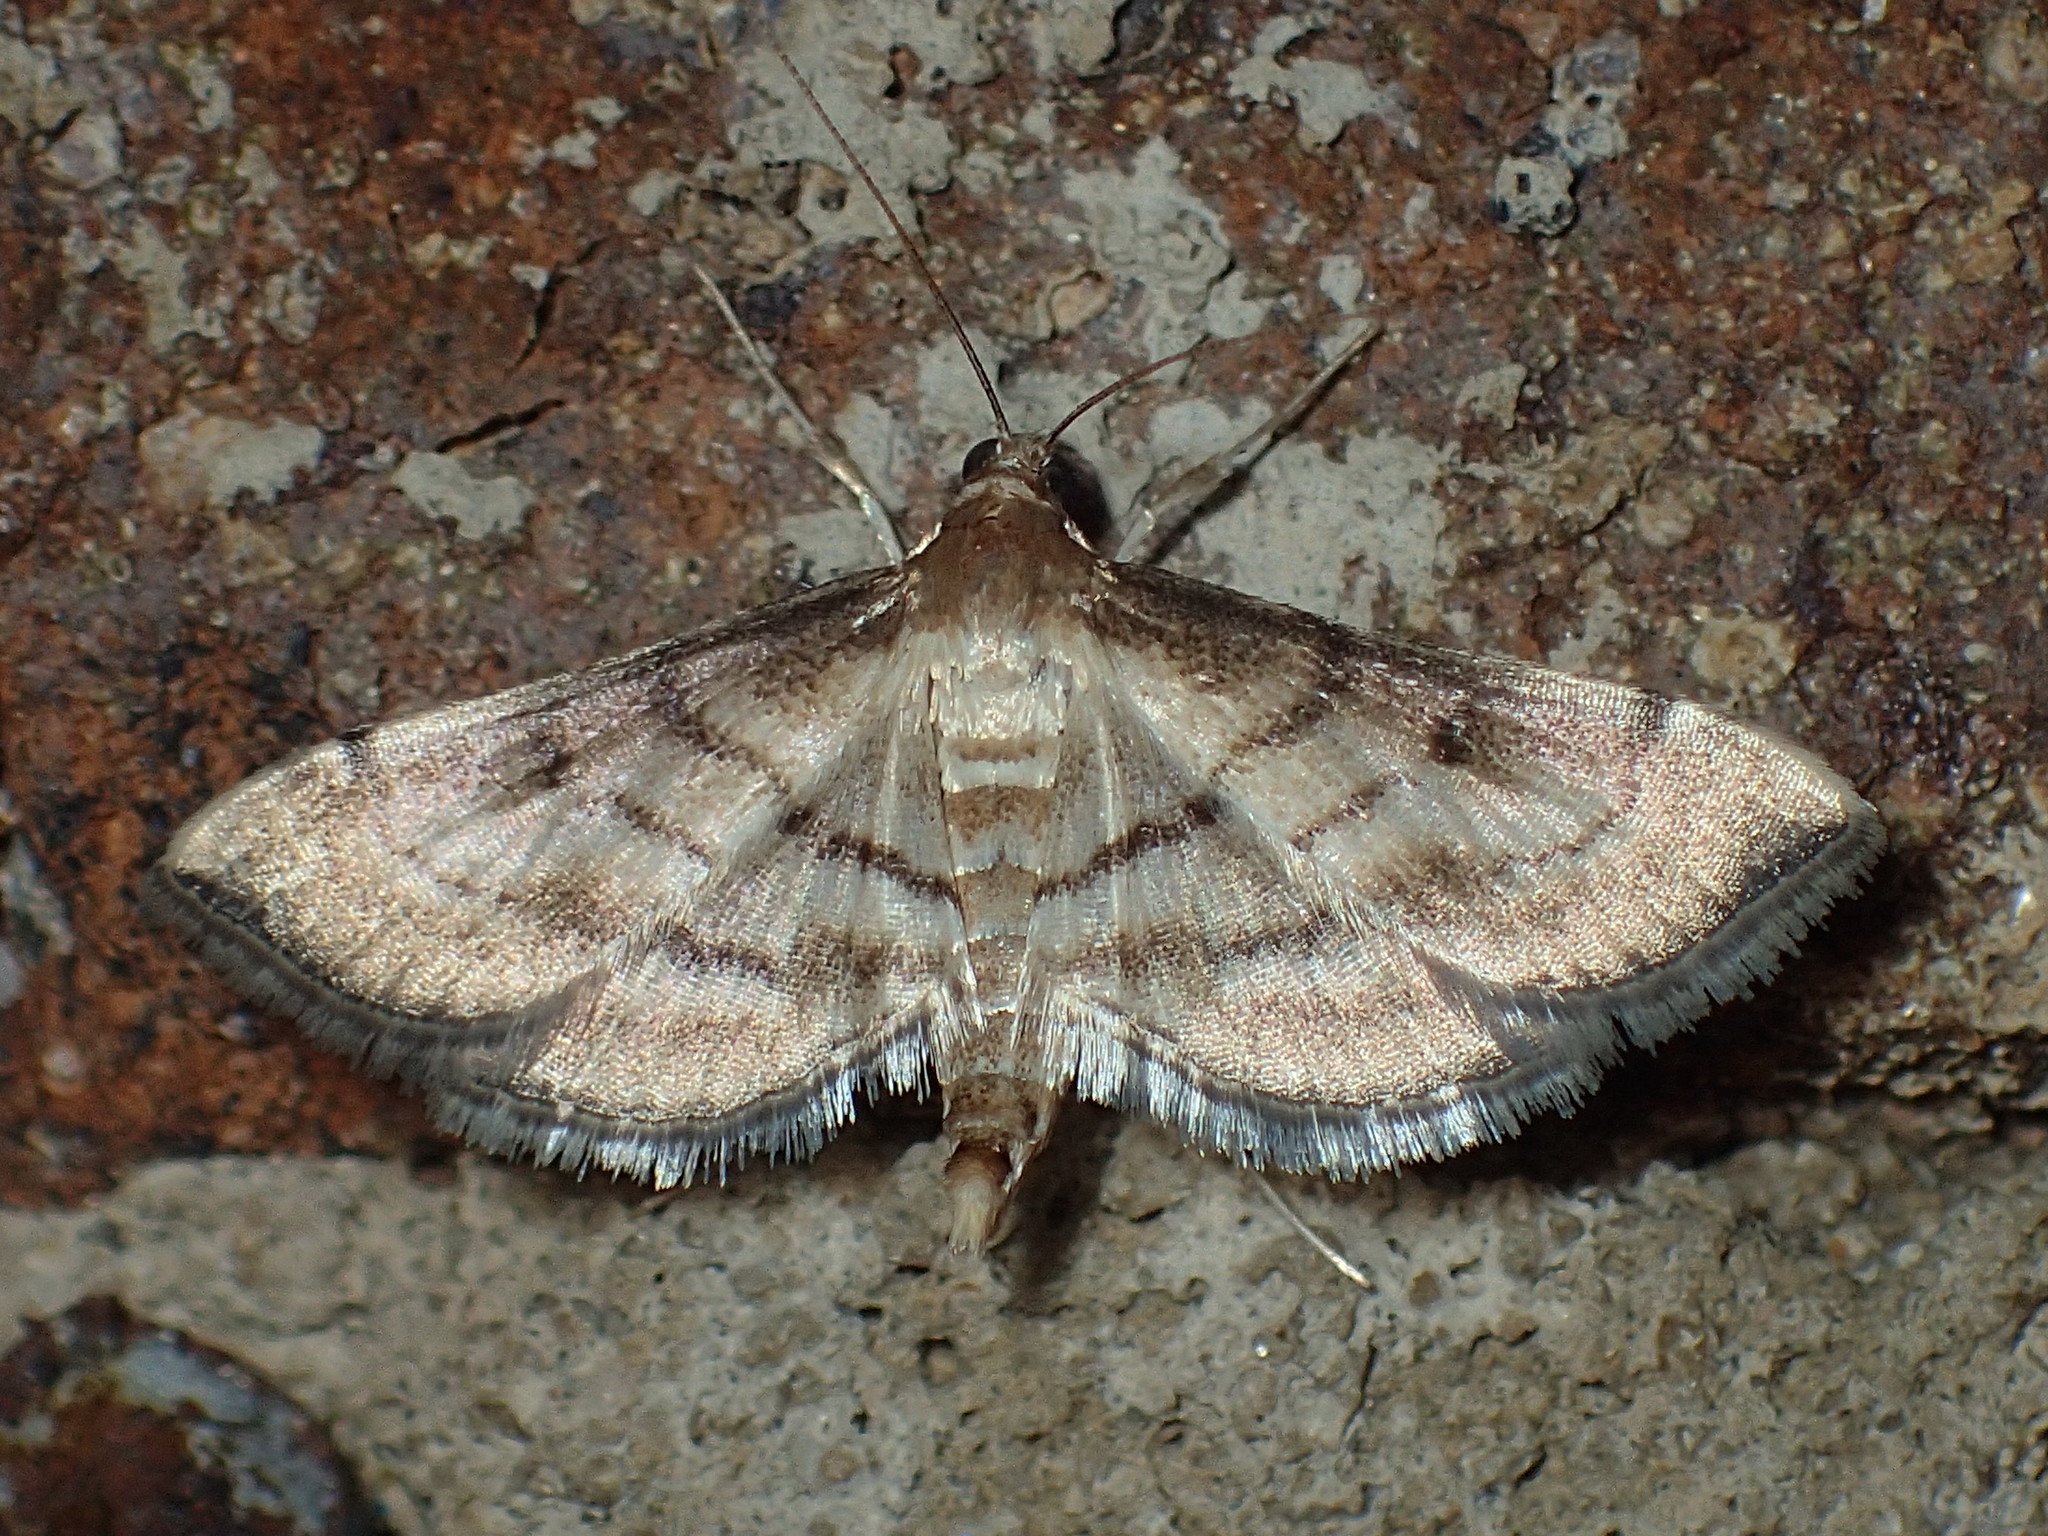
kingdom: Animalia
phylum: Arthropoda
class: Insecta
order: Lepidoptera
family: Crambidae
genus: Cnaphalocrocis
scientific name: Cnaphalocrocis Marasmia trapezalis
